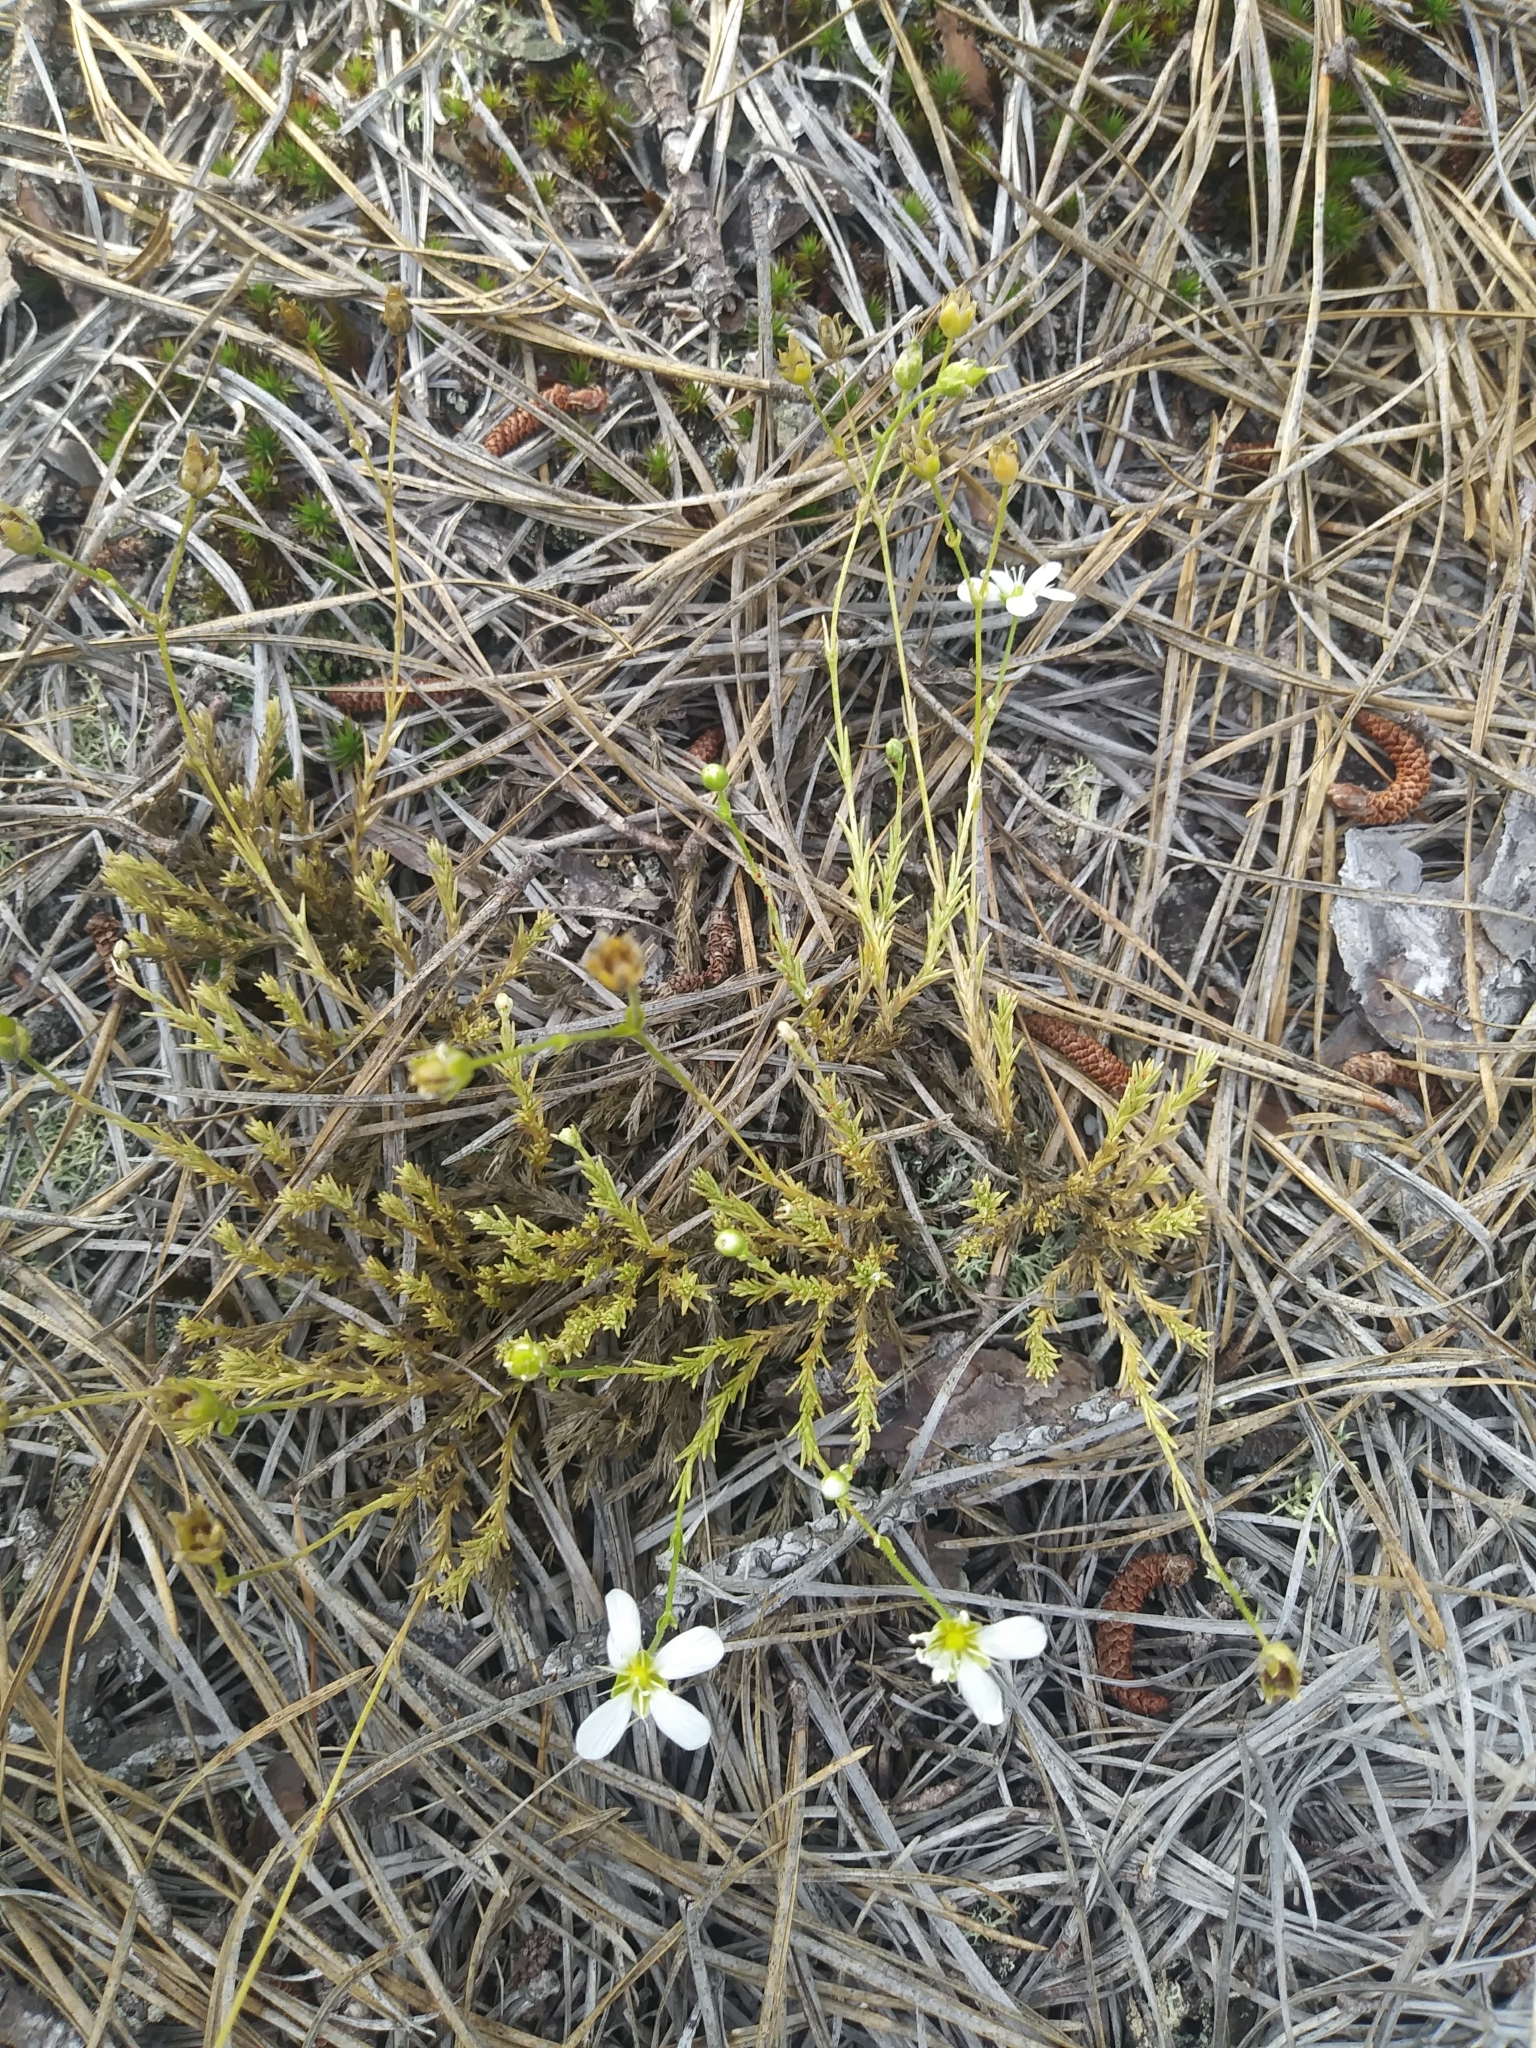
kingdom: Plantae
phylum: Tracheophyta
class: Magnoliopsida
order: Caryophyllales
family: Caryophyllaceae
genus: Geocarpon
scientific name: Geocarpon carolinianum
